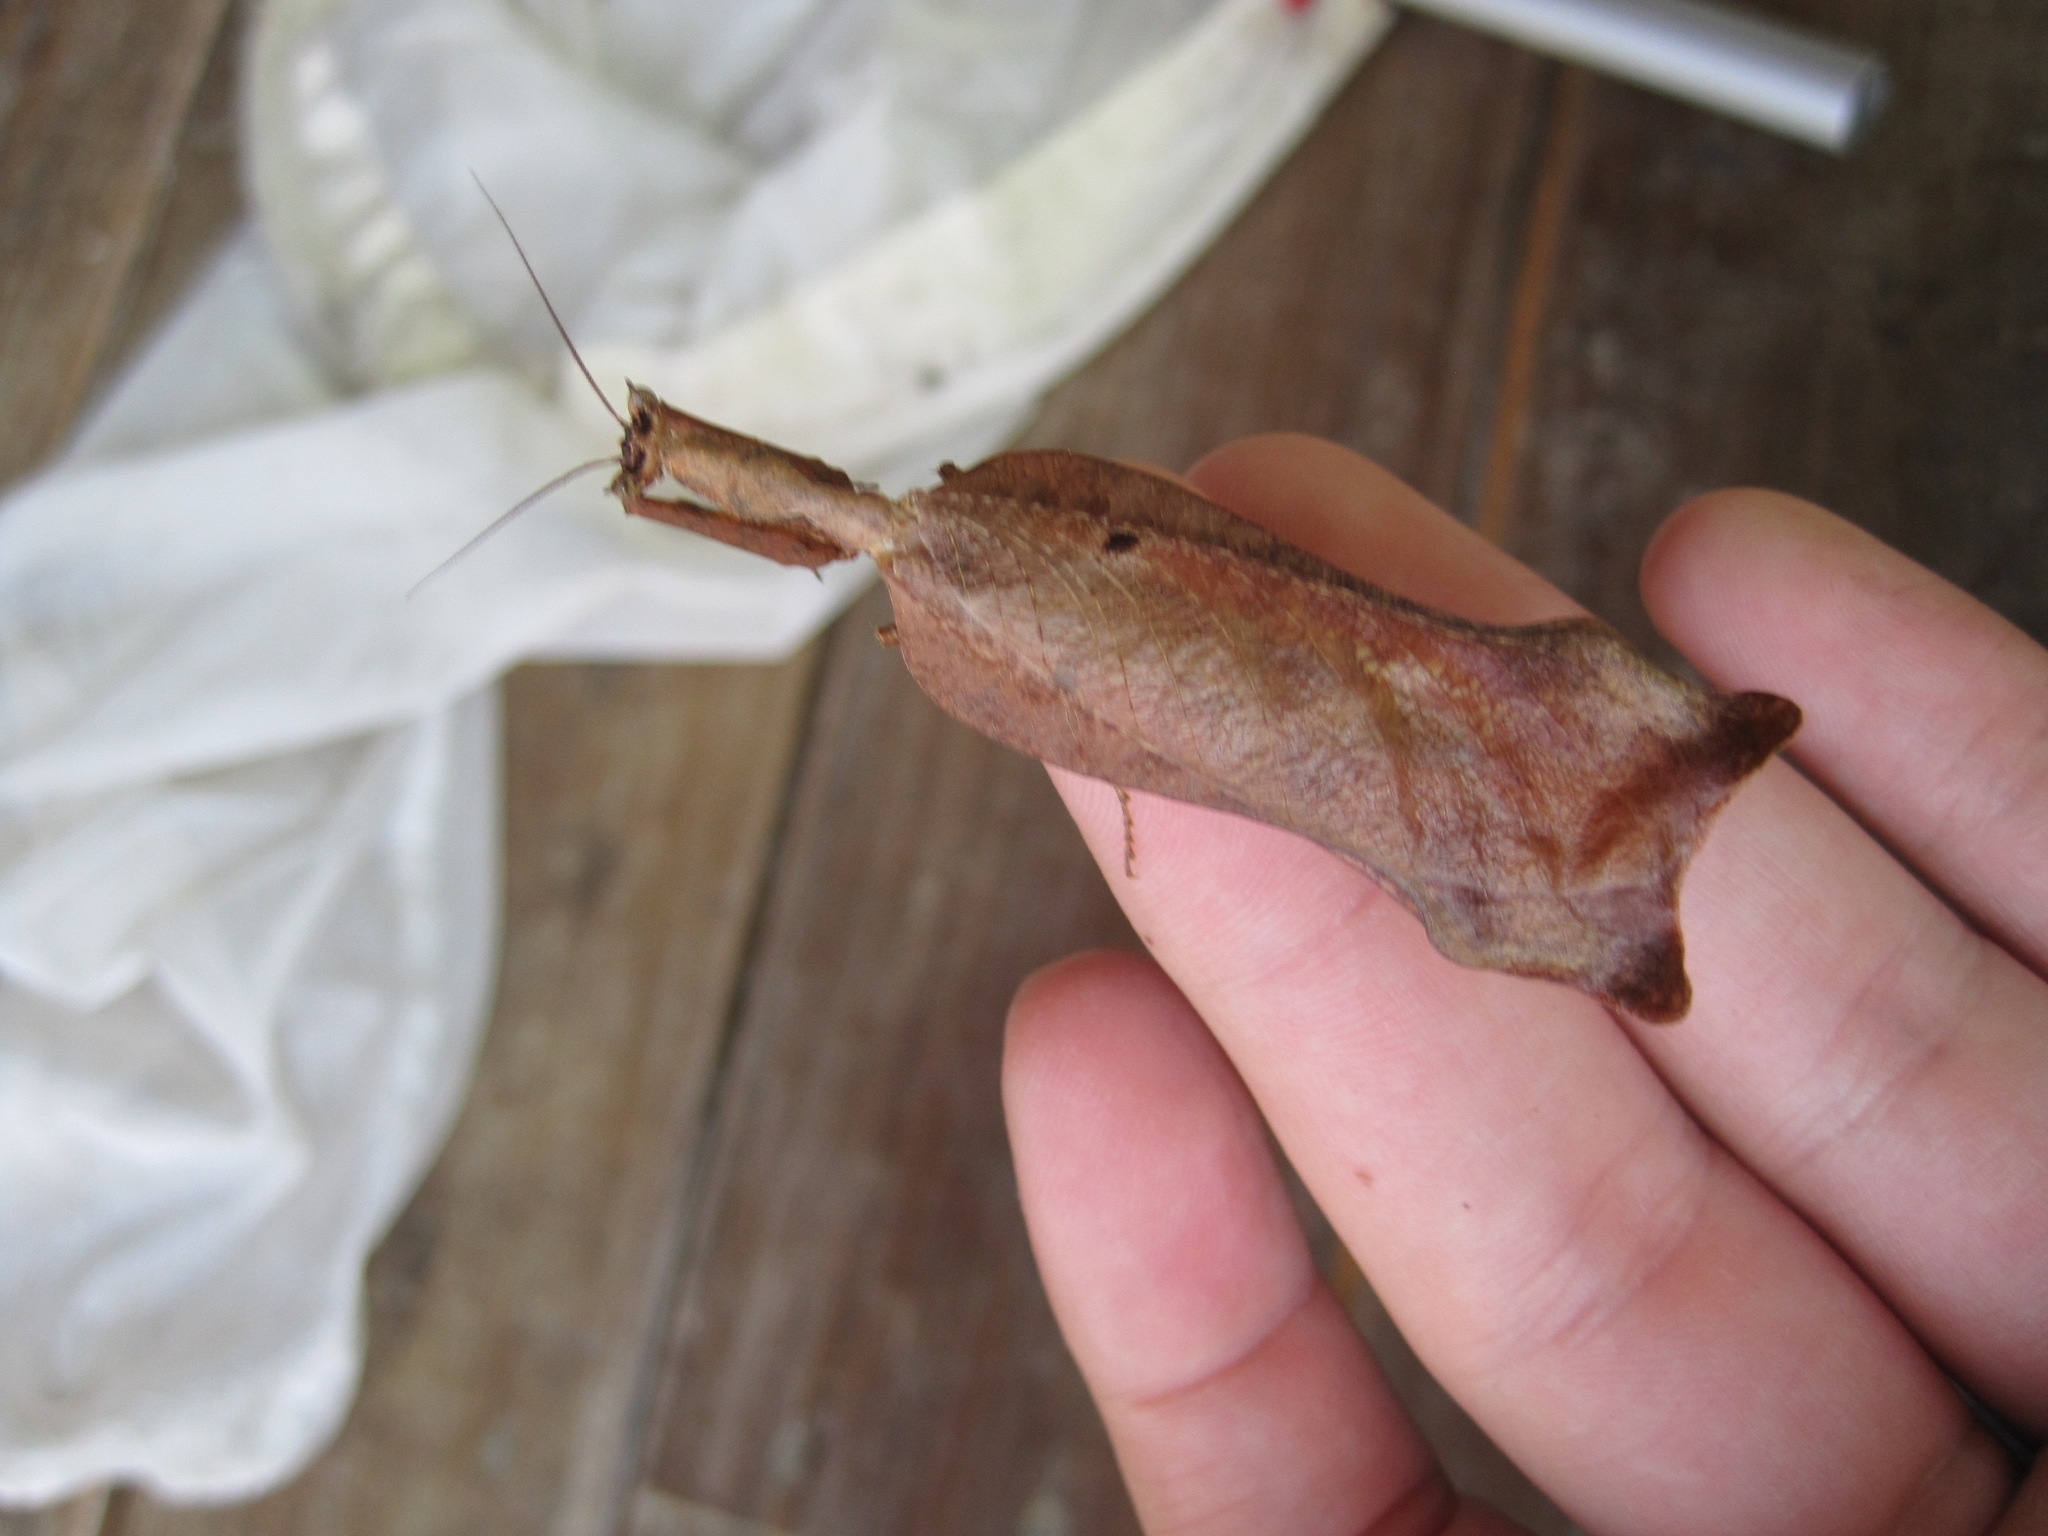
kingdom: Animalia
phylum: Arthropoda
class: Insecta
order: Mantodea
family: Acanthopidae
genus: Pseudacanthops
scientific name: Pseudacanthops caelebs
